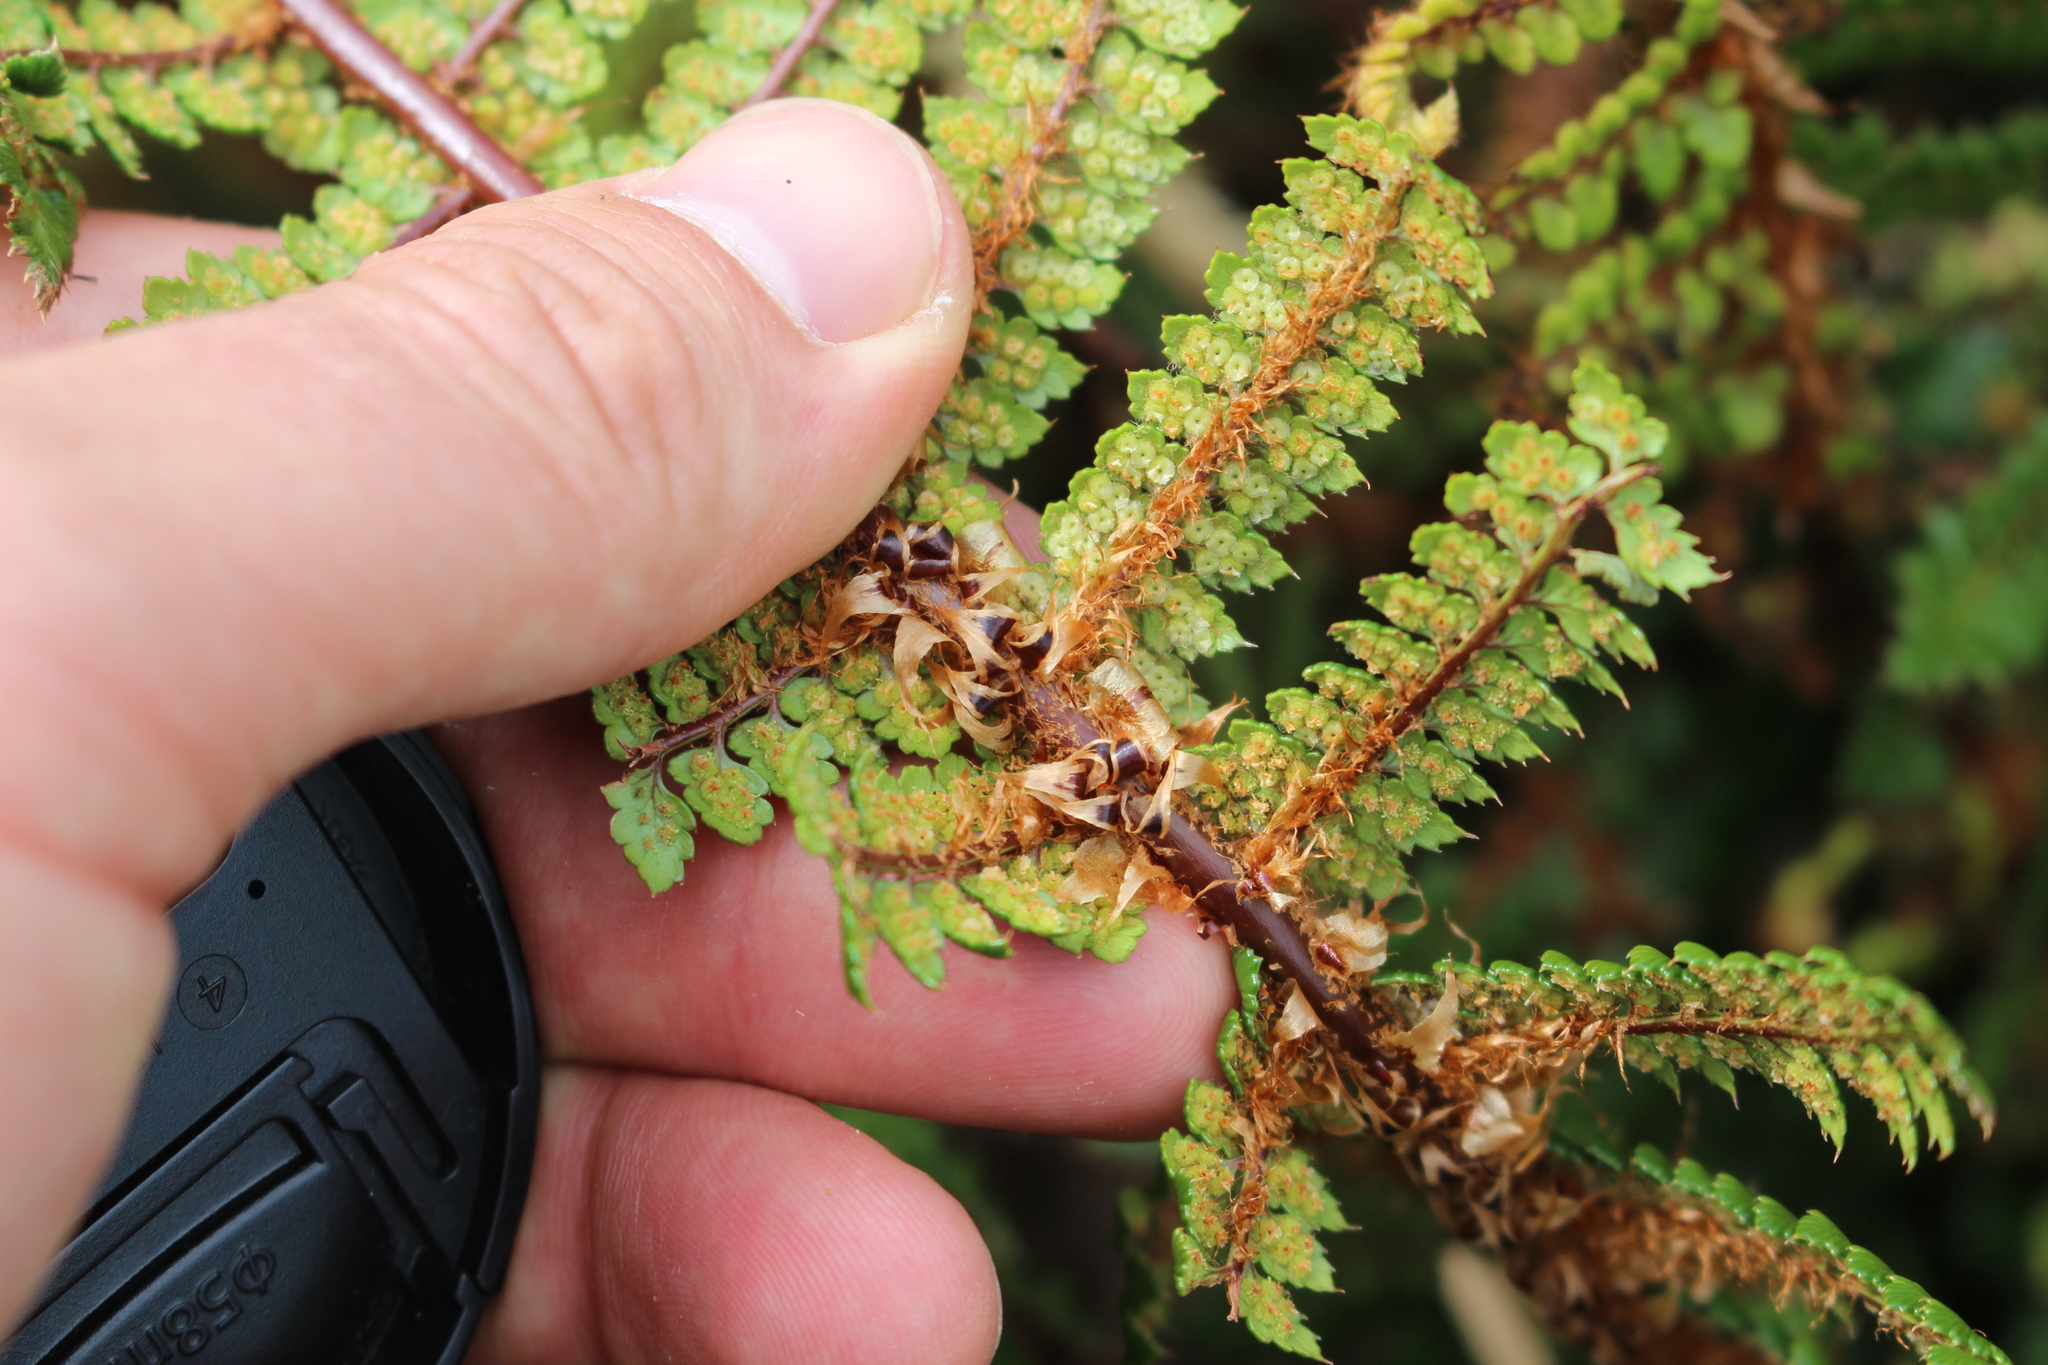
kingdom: Plantae
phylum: Tracheophyta
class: Polypodiopsida
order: Polypodiales
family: Dryopteridaceae
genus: Polystichum
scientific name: Polystichum vestitum
